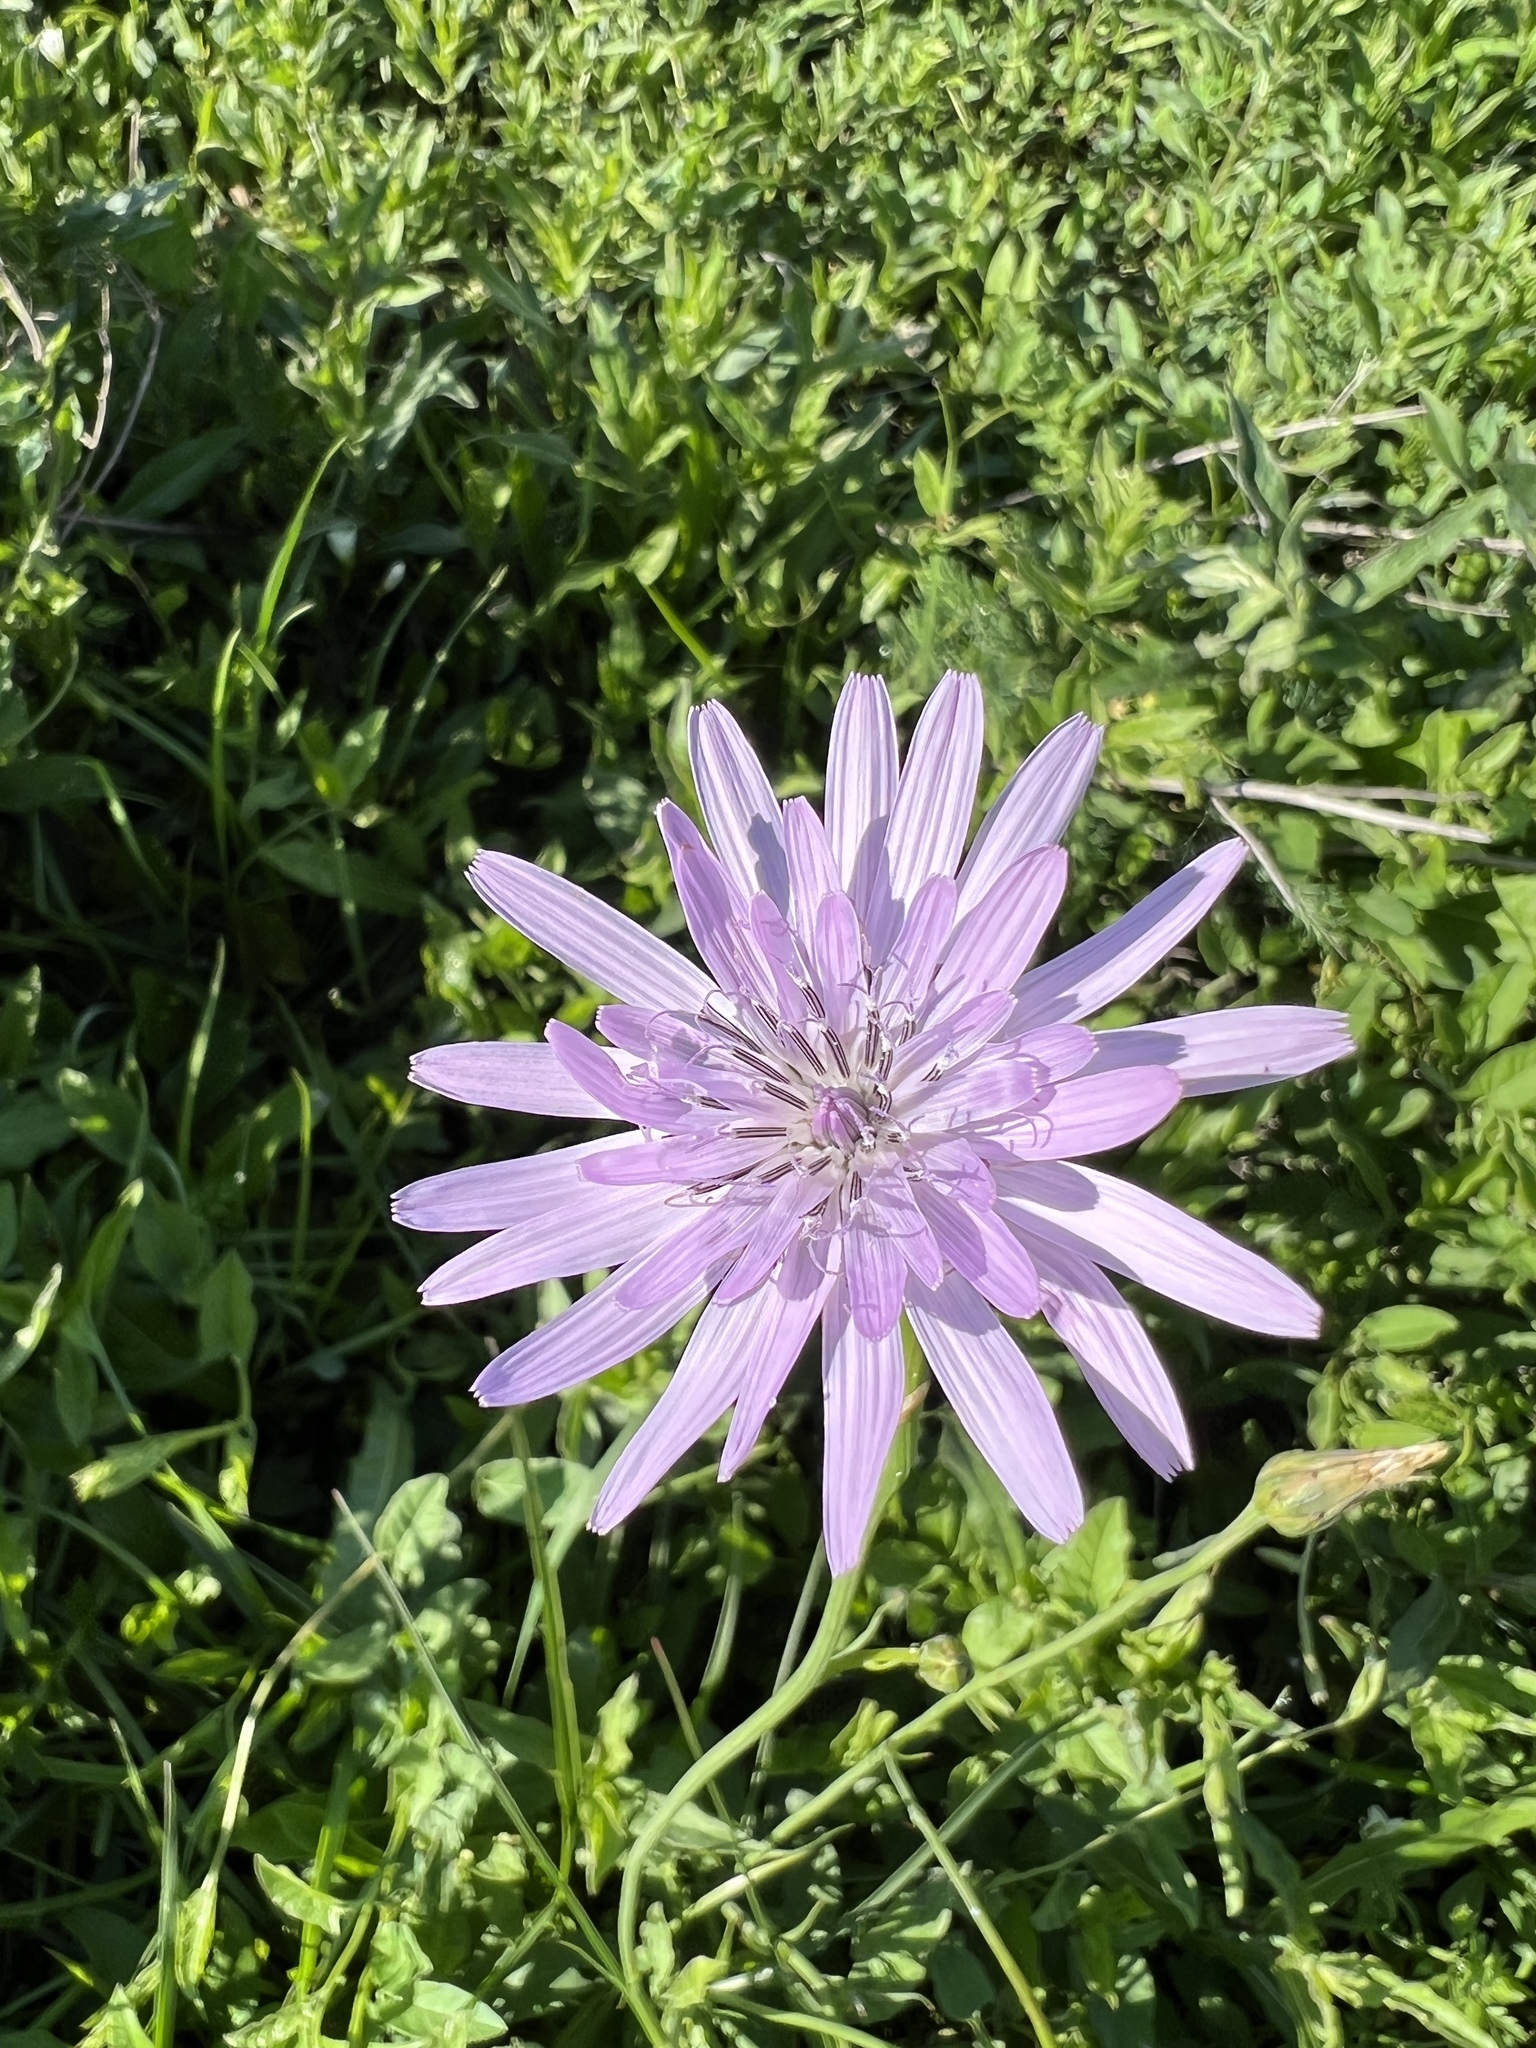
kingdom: Plantae
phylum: Tracheophyta
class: Magnoliopsida
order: Asterales
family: Asteraceae
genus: Scorzonera
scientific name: Scorzonera rosea
